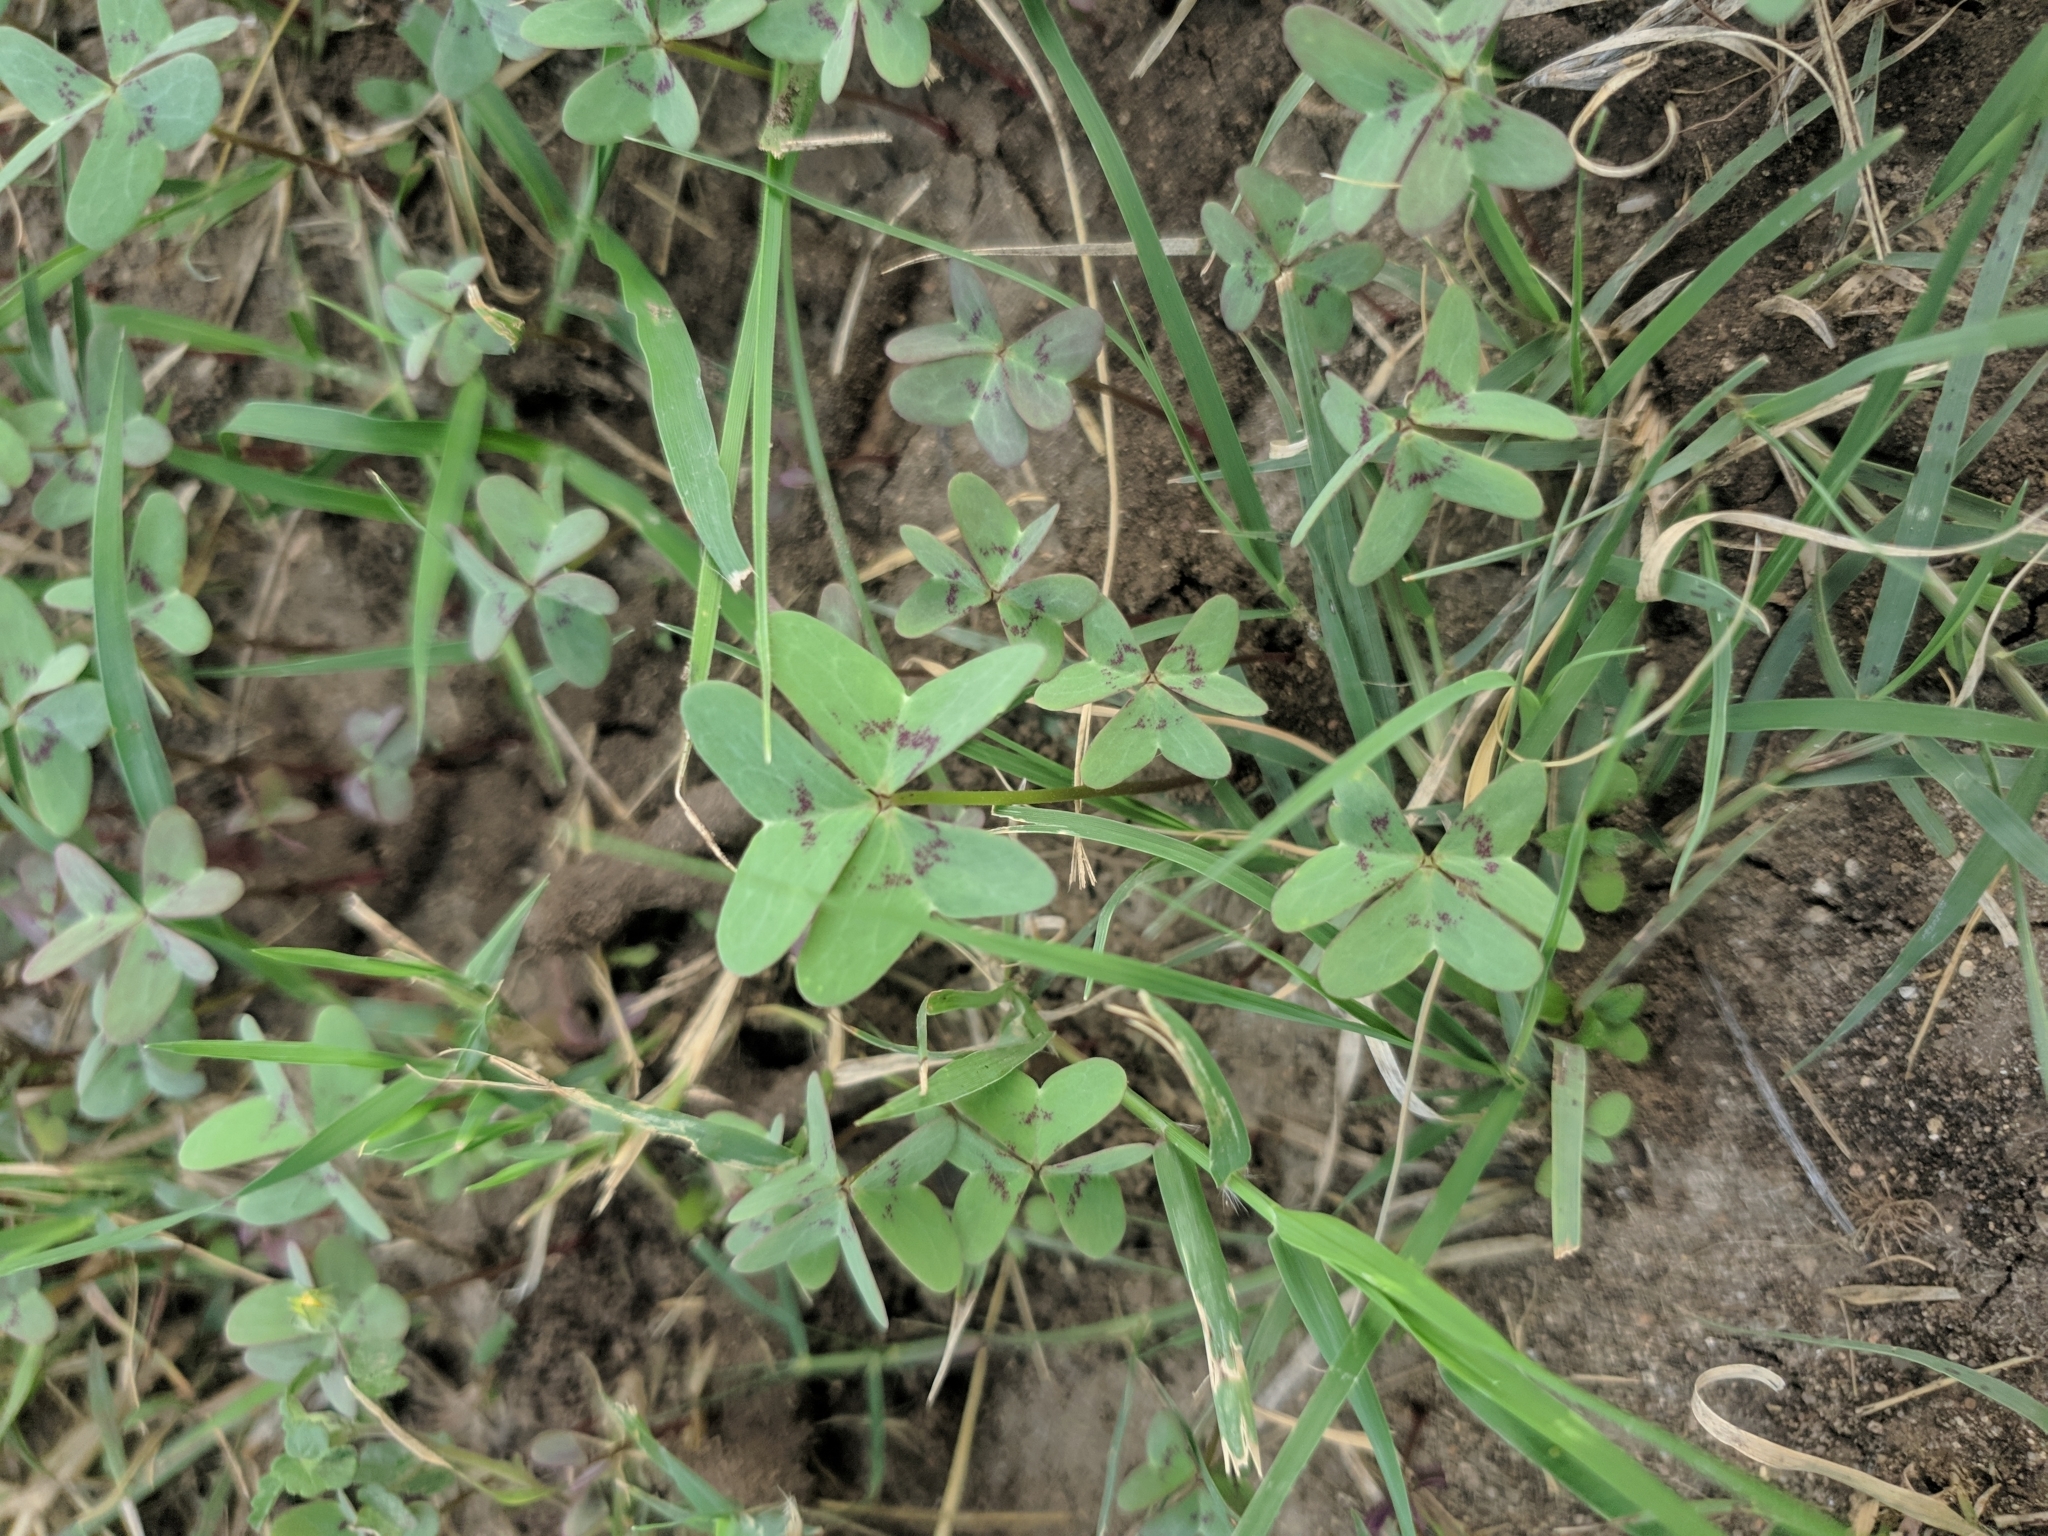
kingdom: Plantae
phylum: Tracheophyta
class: Magnoliopsida
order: Oxalidales
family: Oxalidaceae
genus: Oxalis
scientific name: Oxalis drummondii
